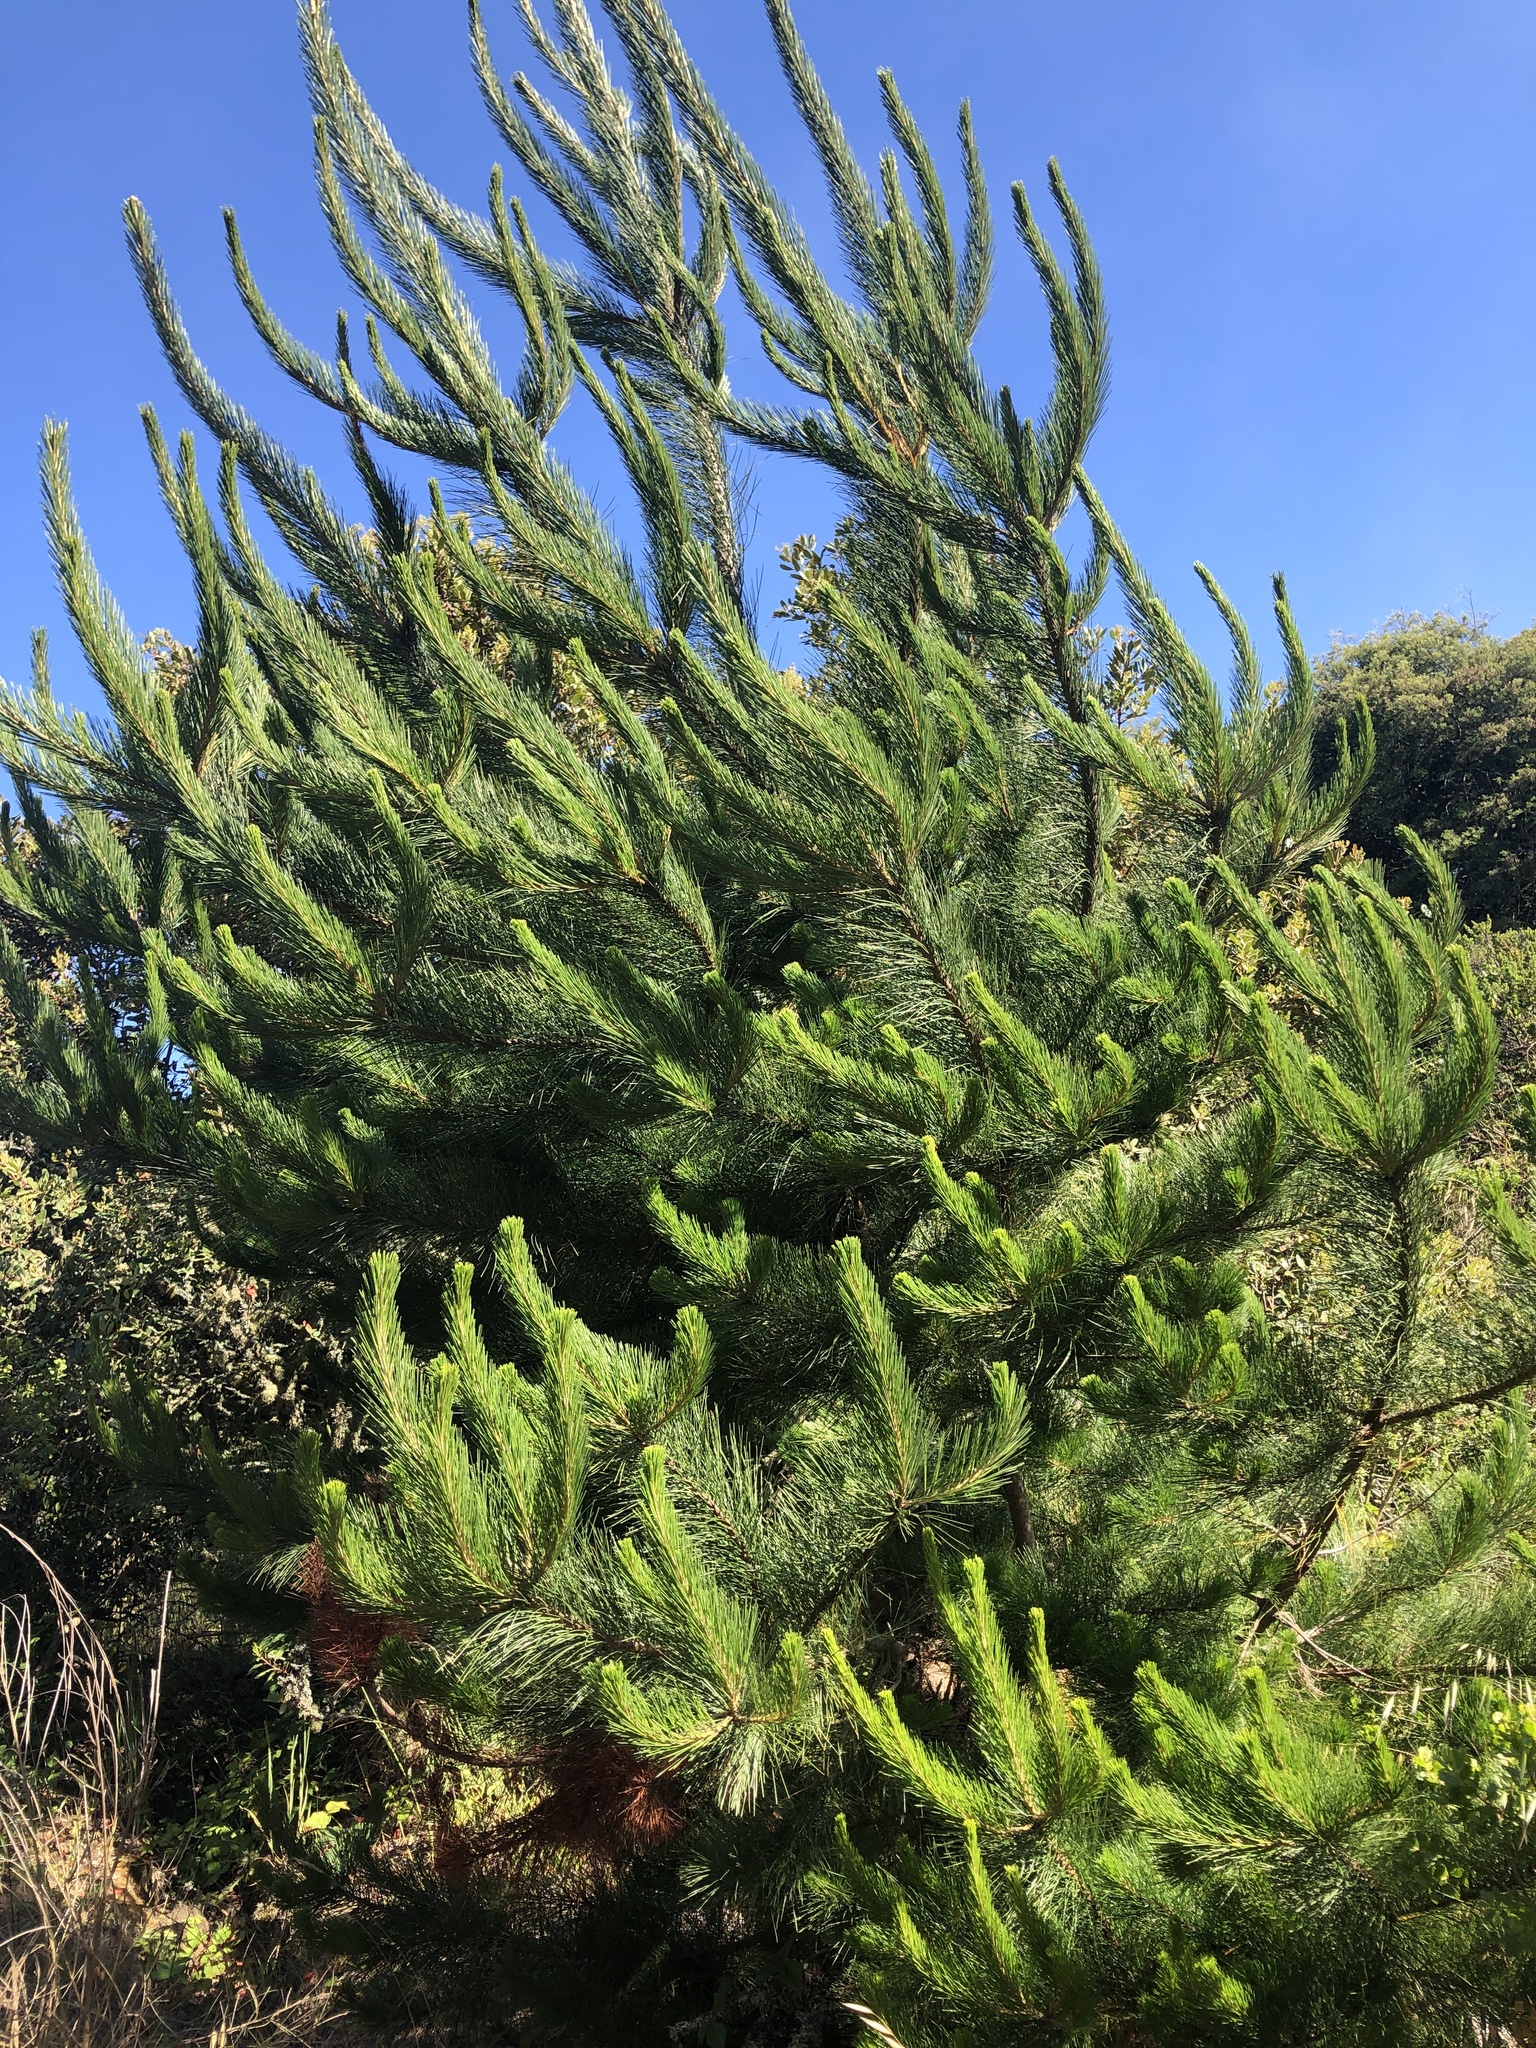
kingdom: Plantae
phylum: Tracheophyta
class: Pinopsida
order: Pinales
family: Pinaceae
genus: Pinus
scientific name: Pinus radiata
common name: Monterey pine
